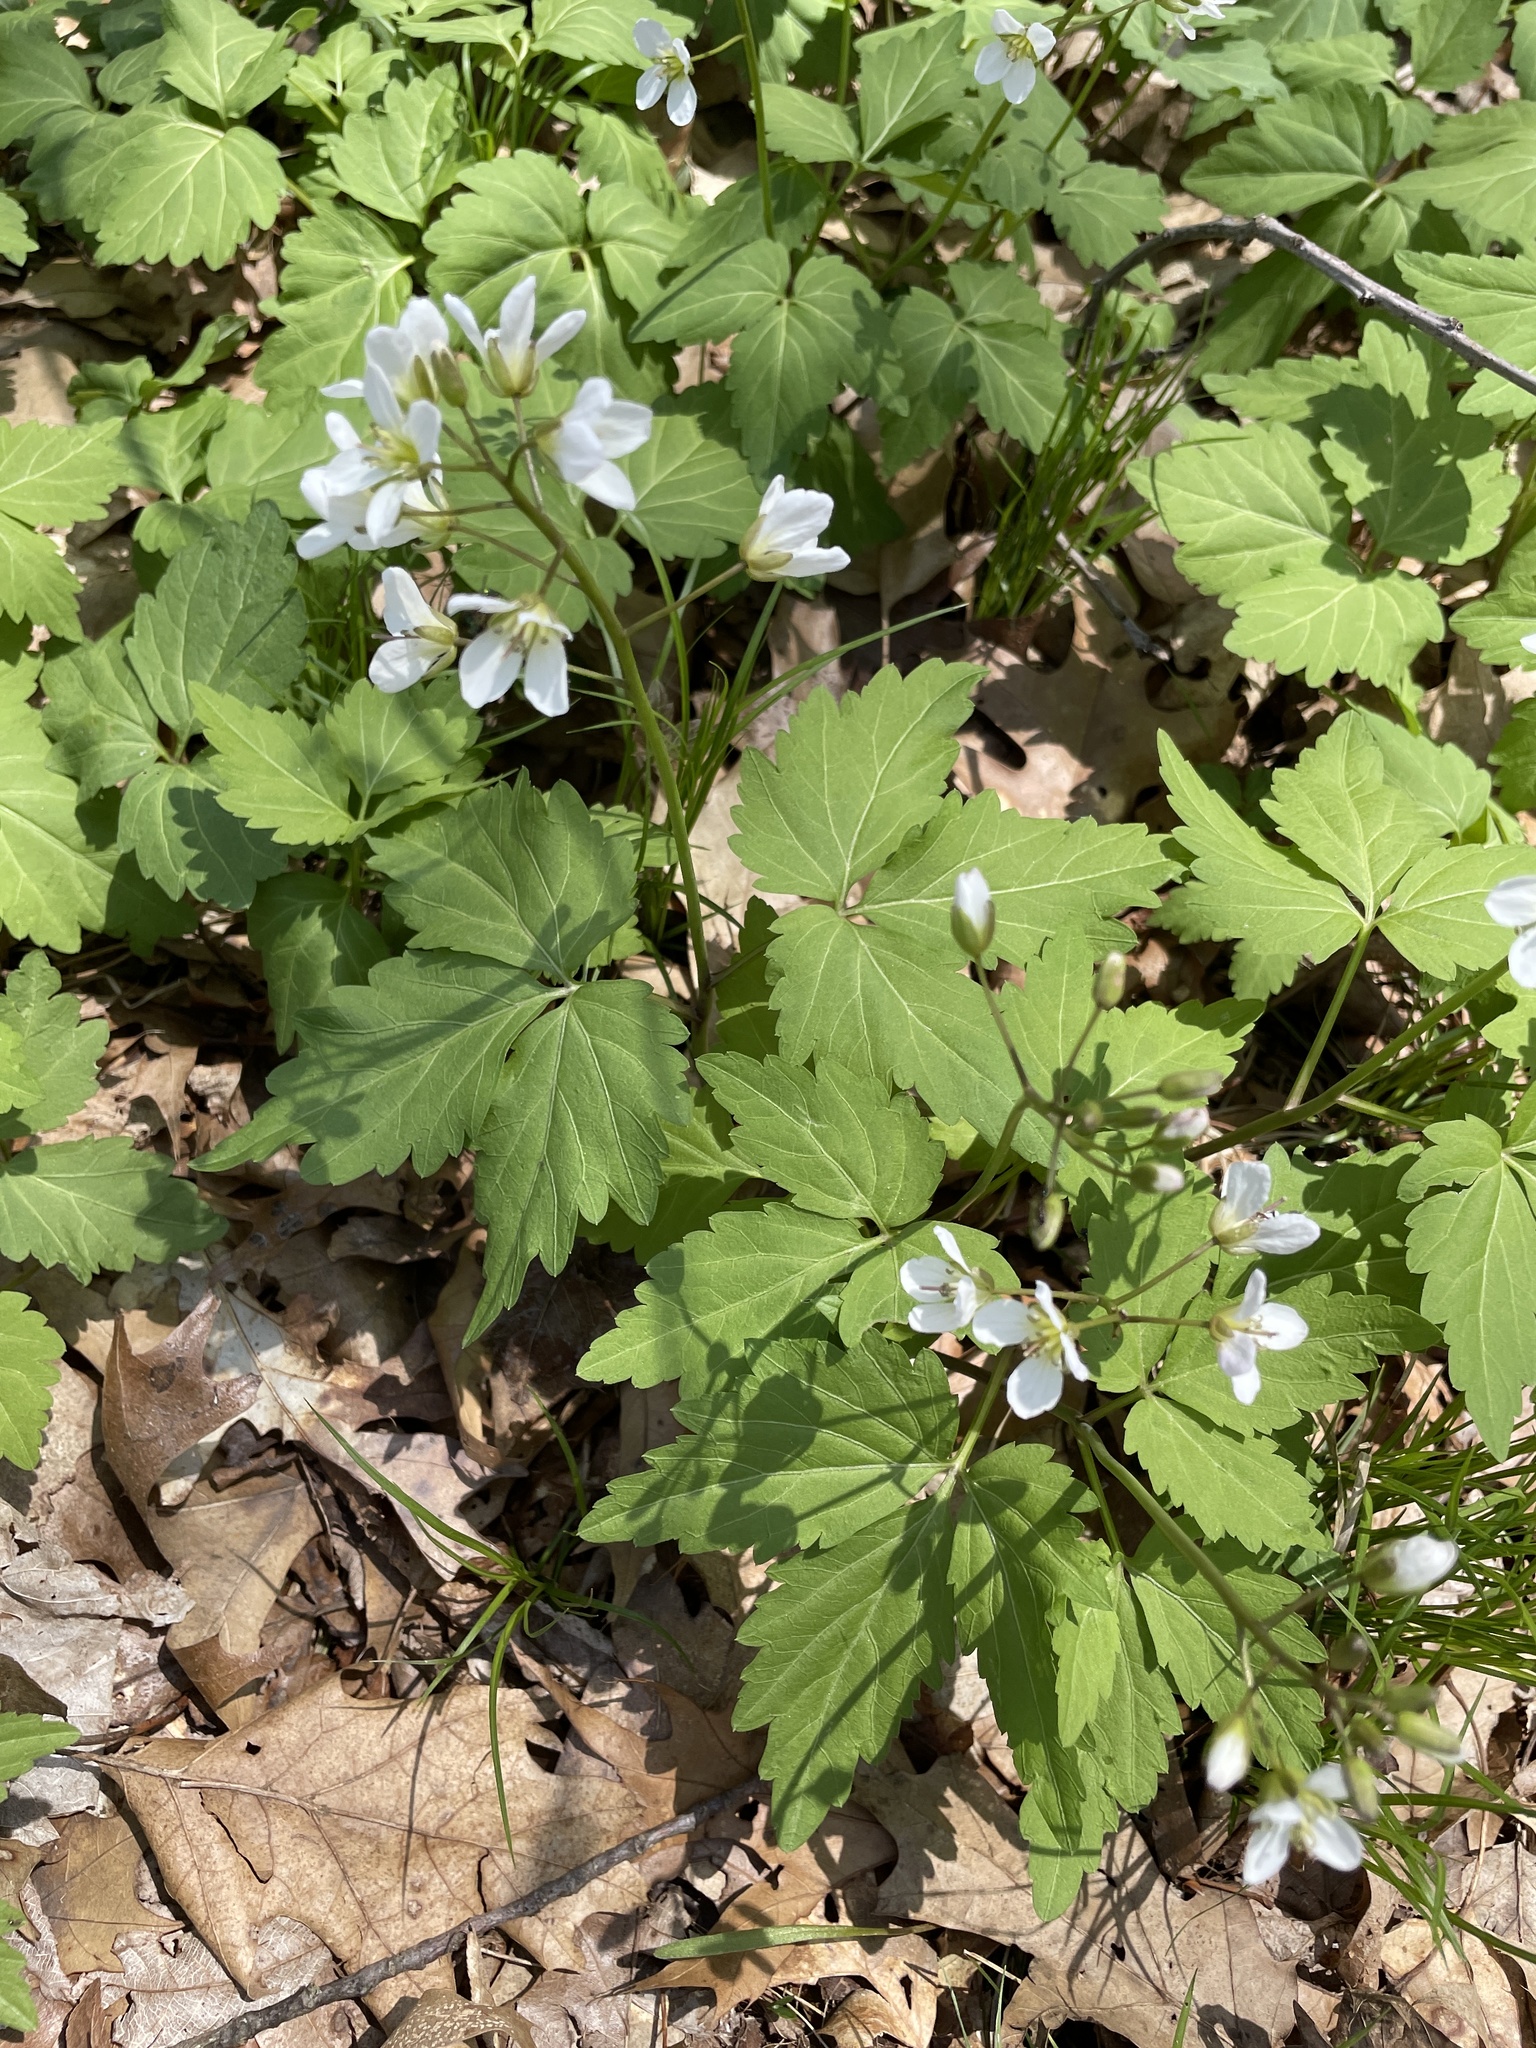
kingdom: Plantae
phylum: Tracheophyta
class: Magnoliopsida
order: Brassicales
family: Brassicaceae
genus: Cardamine
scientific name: Cardamine diphylla
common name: Broad-leaved toothwort
